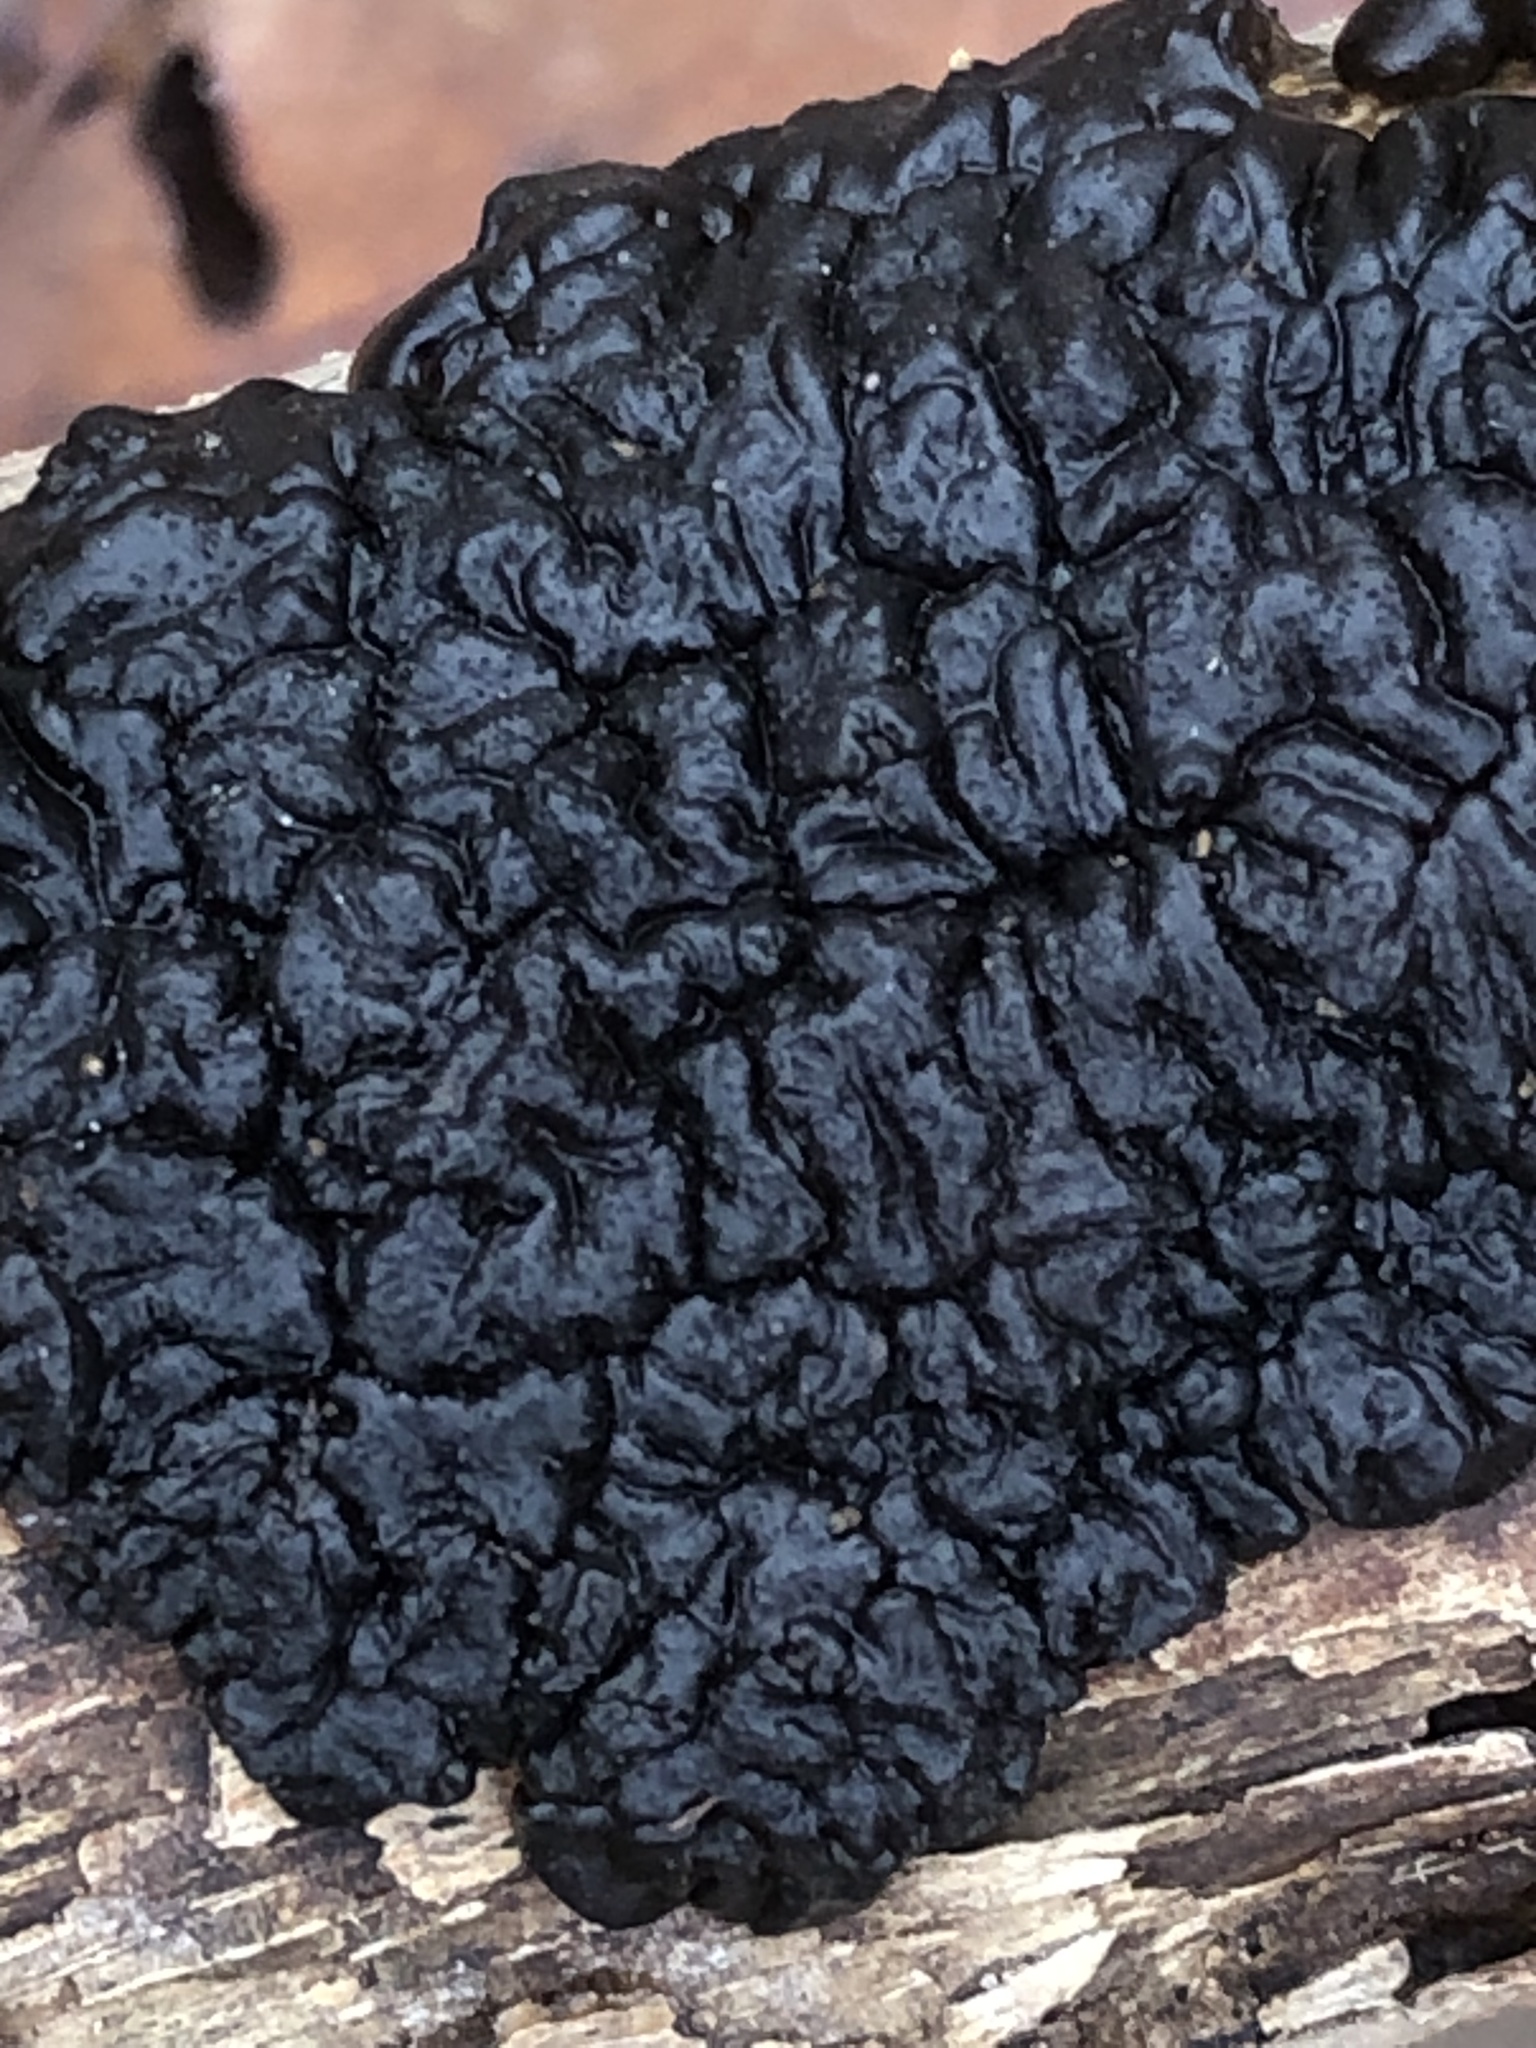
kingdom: Fungi
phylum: Basidiomycota
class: Agaricomycetes
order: Auriculariales
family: Auriculariaceae
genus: Exidia
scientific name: Exidia nigricans
